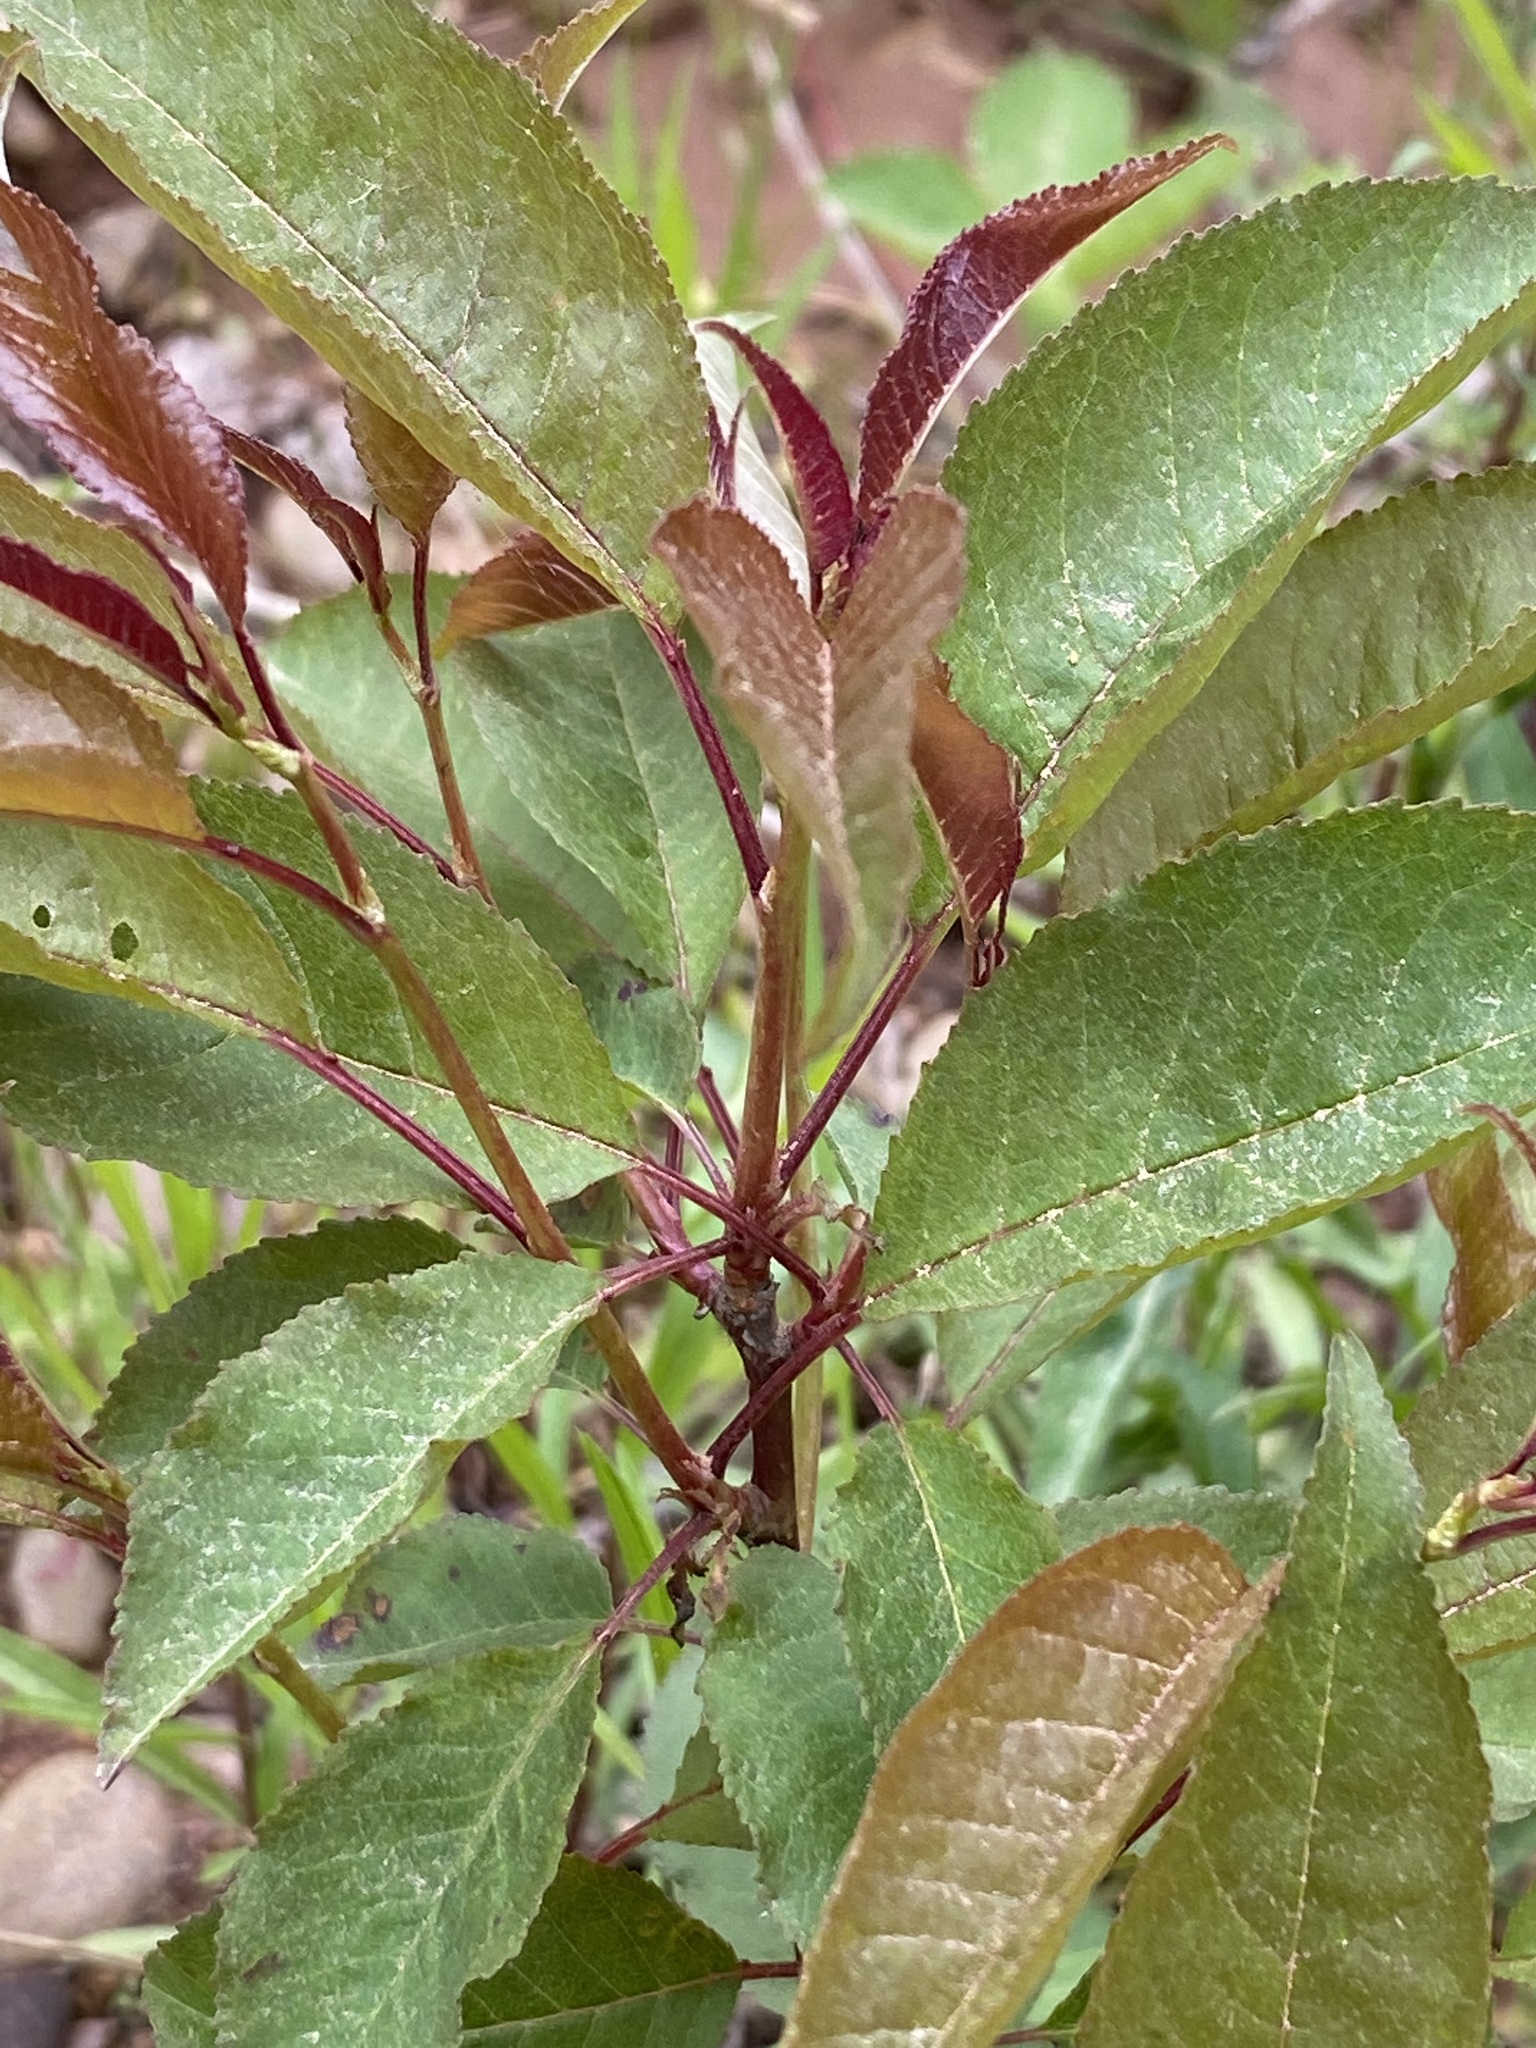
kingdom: Plantae
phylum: Tracheophyta
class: Magnoliopsida
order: Rosales
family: Rosaceae
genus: Prunus
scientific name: Prunus pensylvanica
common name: Pin cherry
